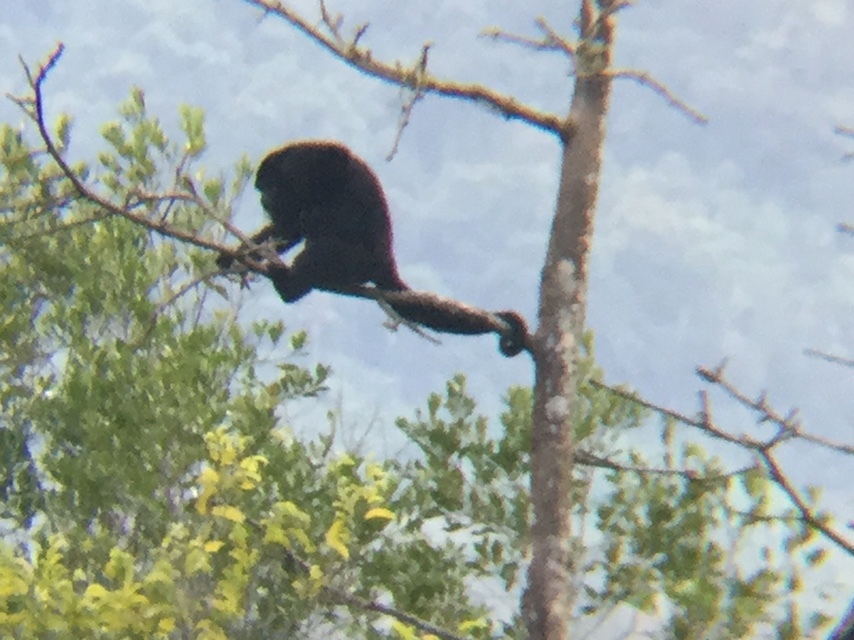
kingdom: Animalia
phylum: Chordata
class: Mammalia
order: Primates
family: Atelidae
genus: Alouatta
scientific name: Alouatta pigra
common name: Guatemalan black howler
